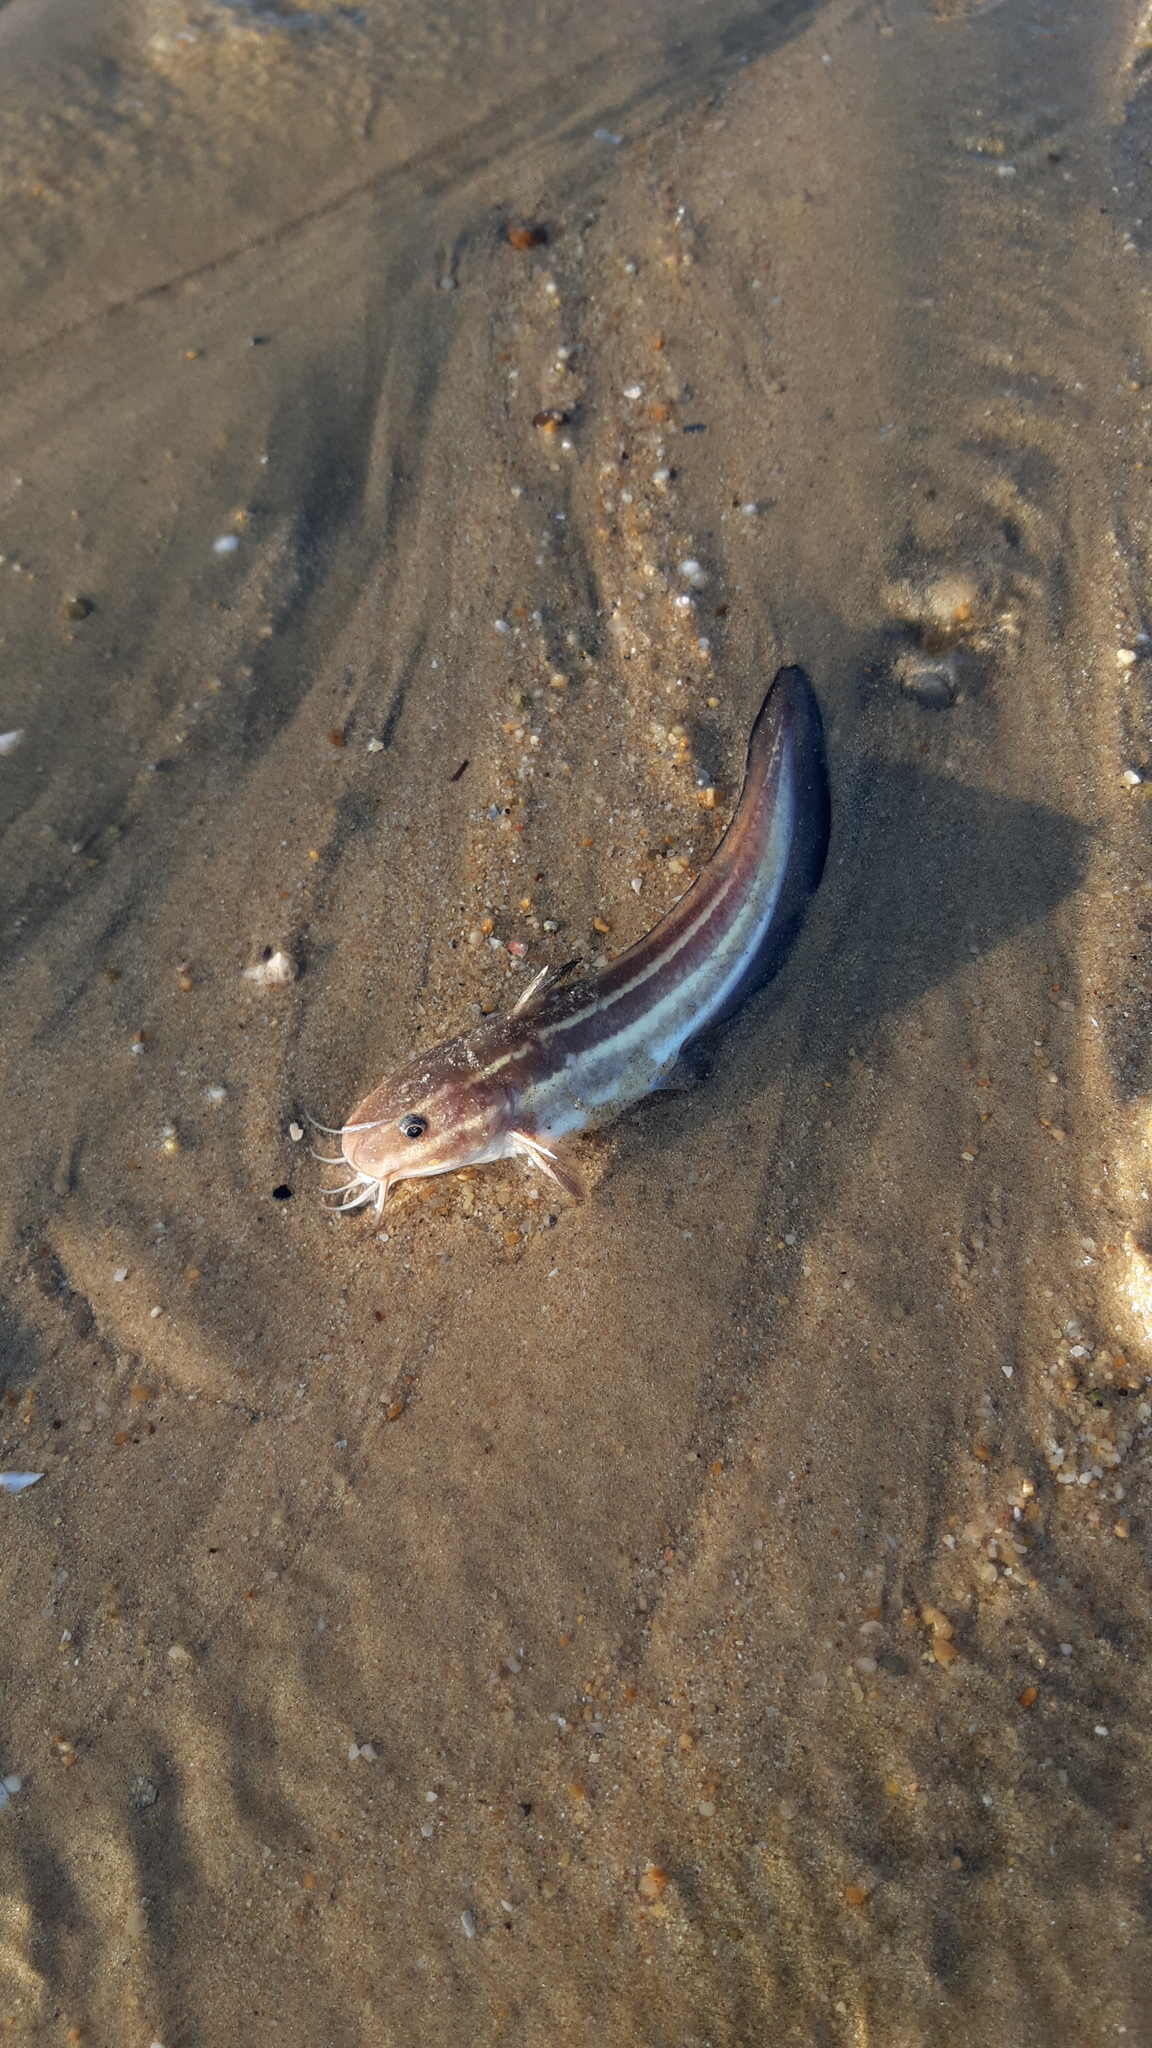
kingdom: Animalia
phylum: Chordata
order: Siluriformes
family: Plotosidae
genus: Plotosus
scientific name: Plotosus lineatus
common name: Striped eel catfish
